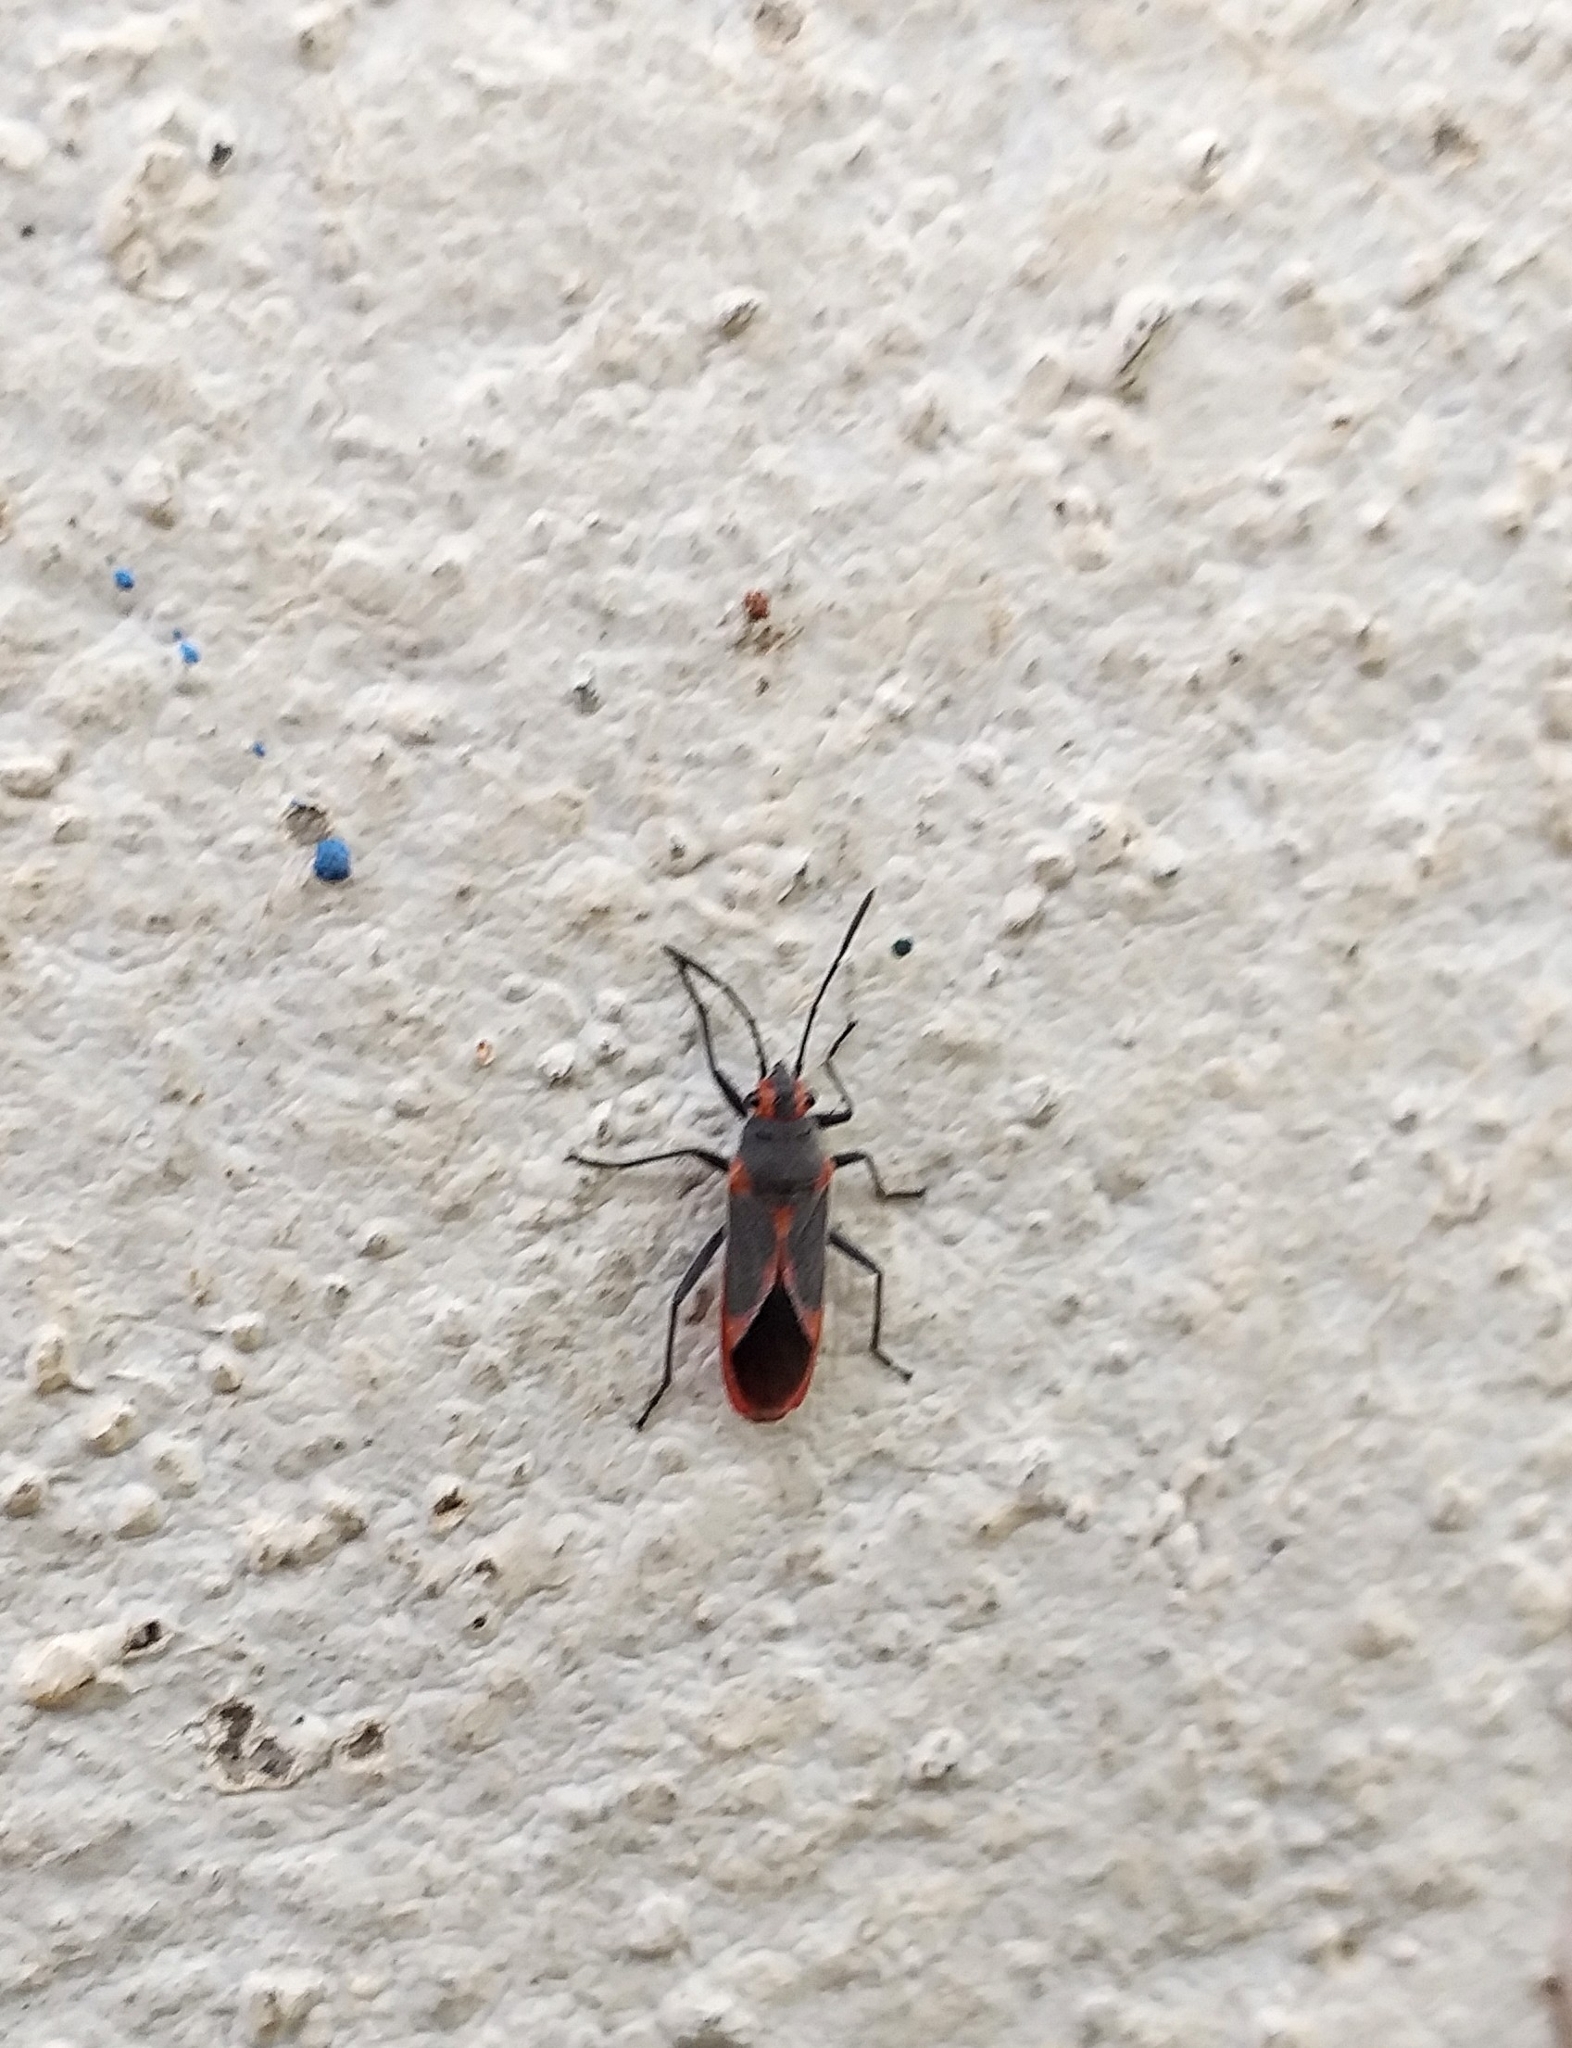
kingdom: Animalia
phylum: Arthropoda
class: Insecta
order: Hemiptera
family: Lygaeidae
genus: Caenocoris
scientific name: Caenocoris nerii
